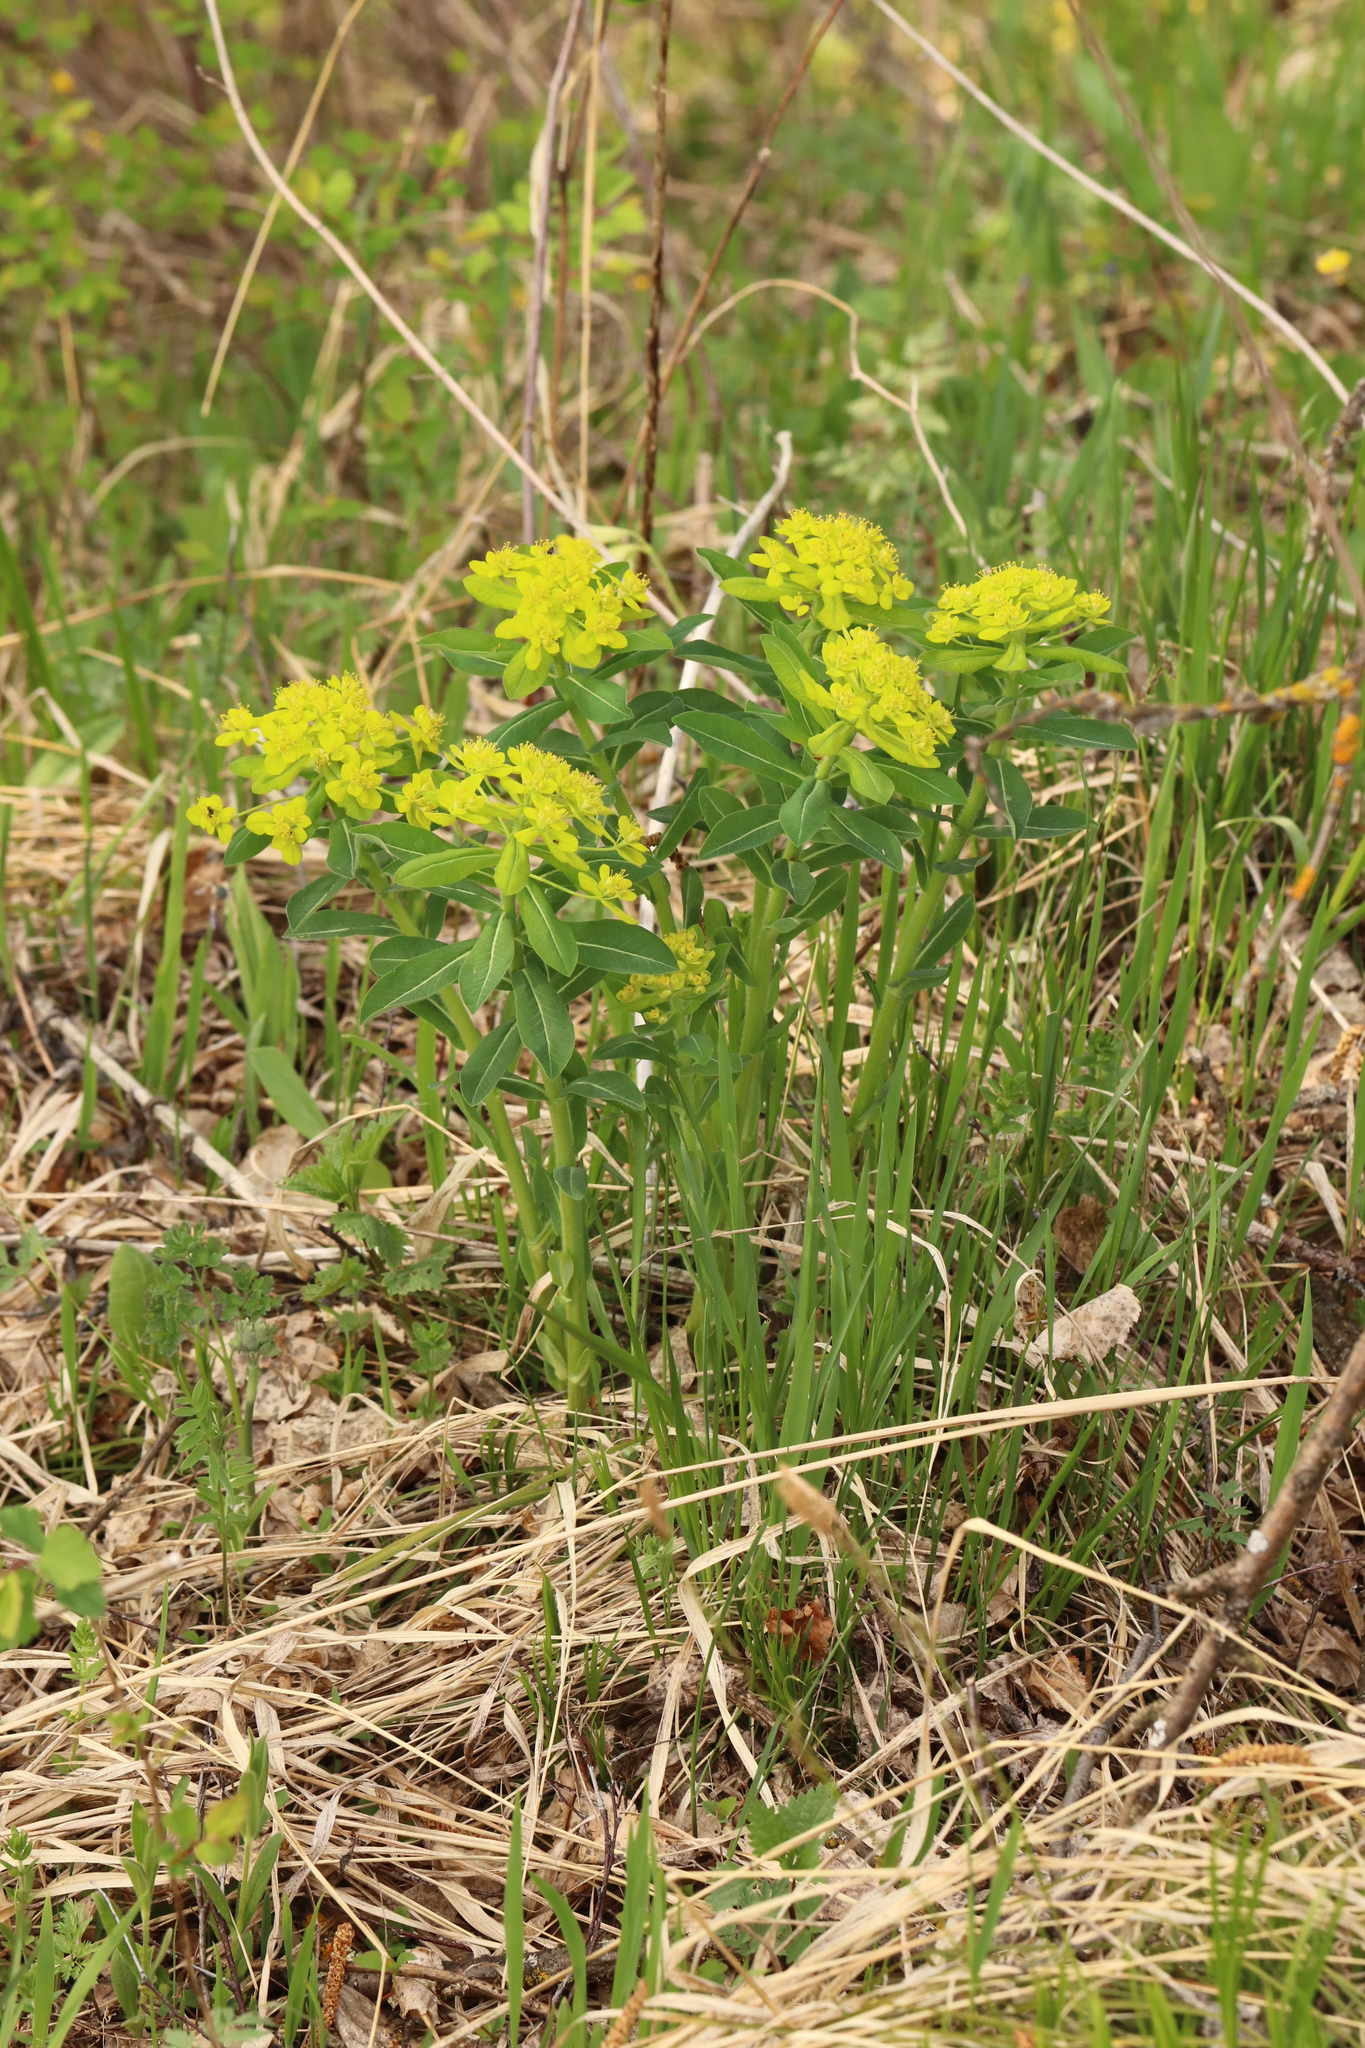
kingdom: Plantae
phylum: Tracheophyta
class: Magnoliopsida
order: Malpighiales
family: Euphorbiaceae
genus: Euphorbia
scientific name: Euphorbia pilosa
